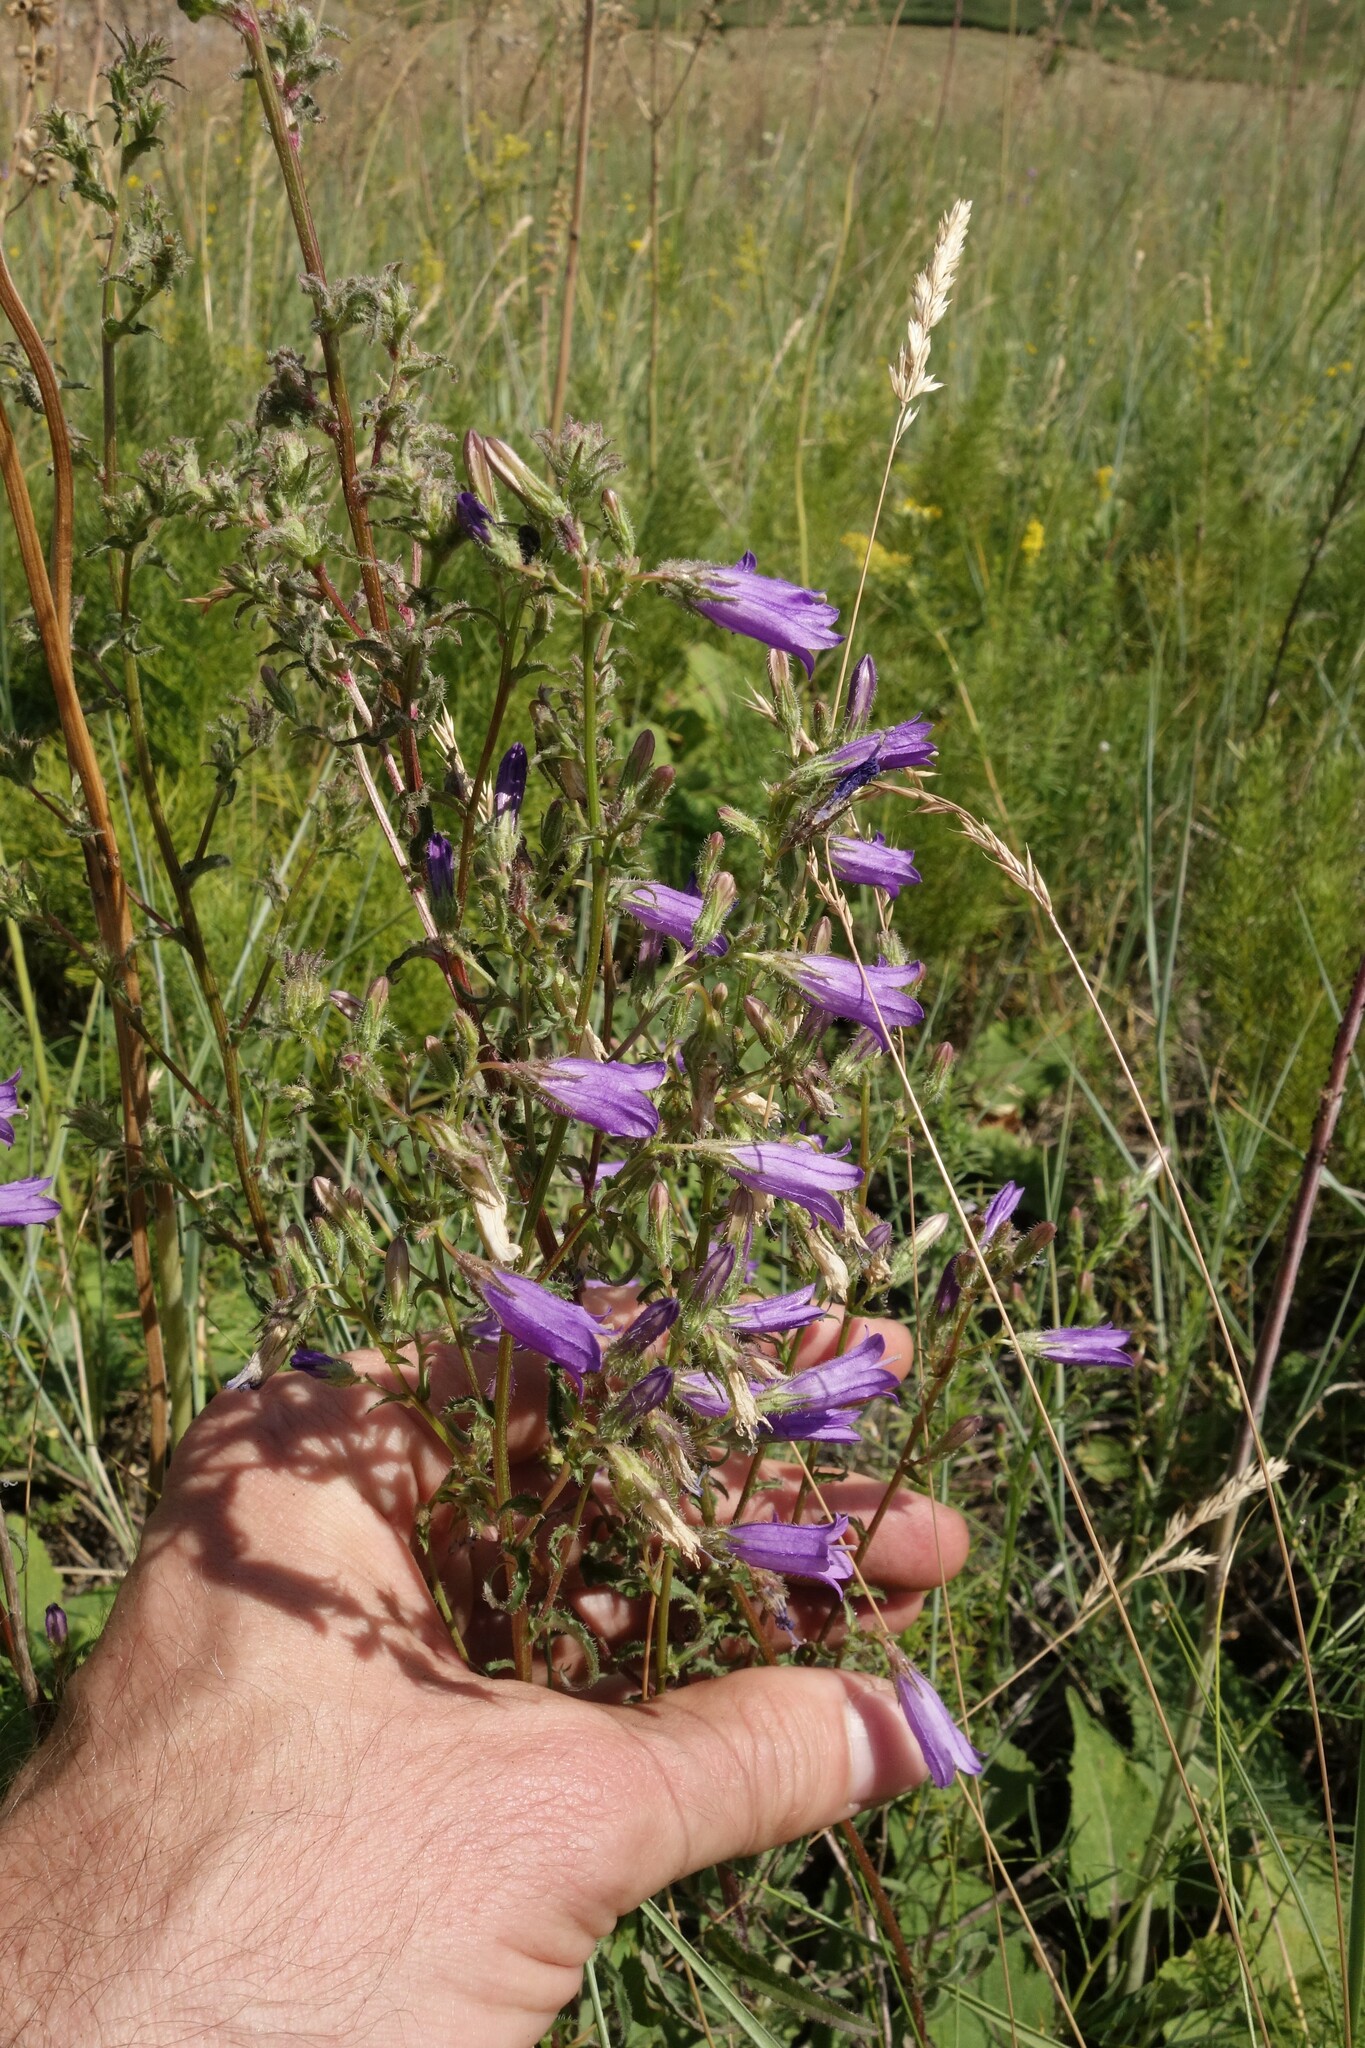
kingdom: Plantae
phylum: Tracheophyta
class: Magnoliopsida
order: Asterales
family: Campanulaceae
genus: Campanula
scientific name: Campanula sibirica
